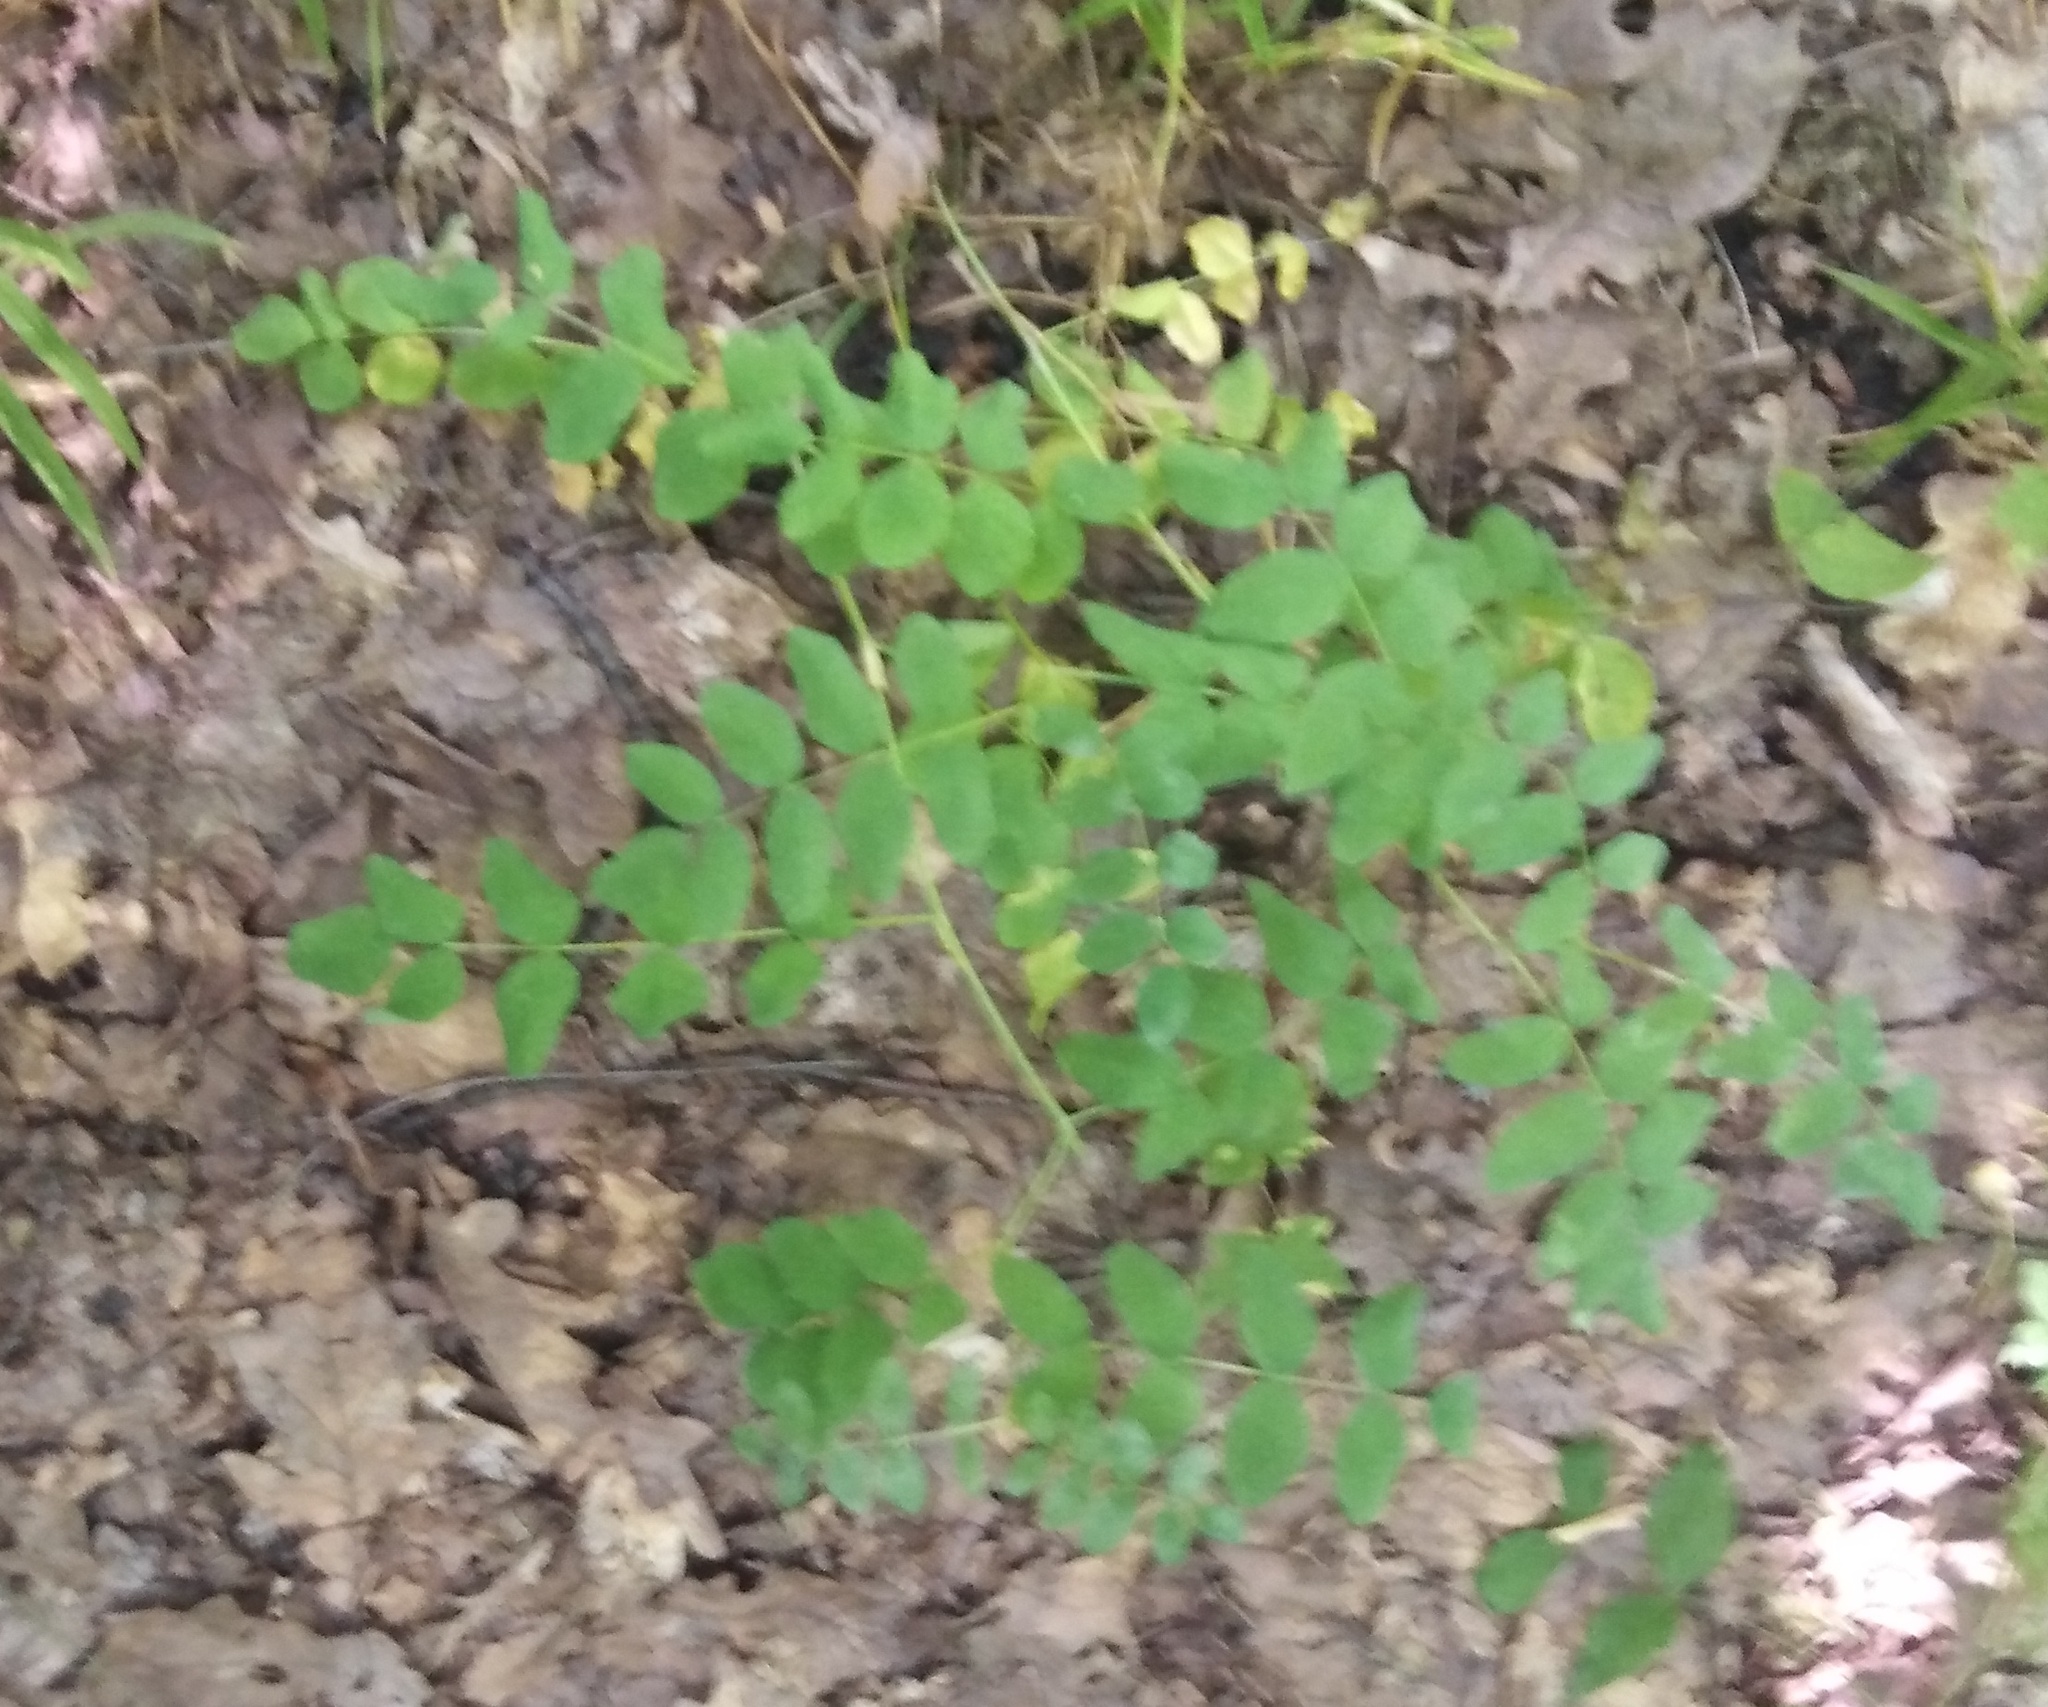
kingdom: Plantae
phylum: Tracheophyta
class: Magnoliopsida
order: Fabales
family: Fabaceae
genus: Astragalus
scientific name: Astragalus glycyphyllos
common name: Wild liquorice
